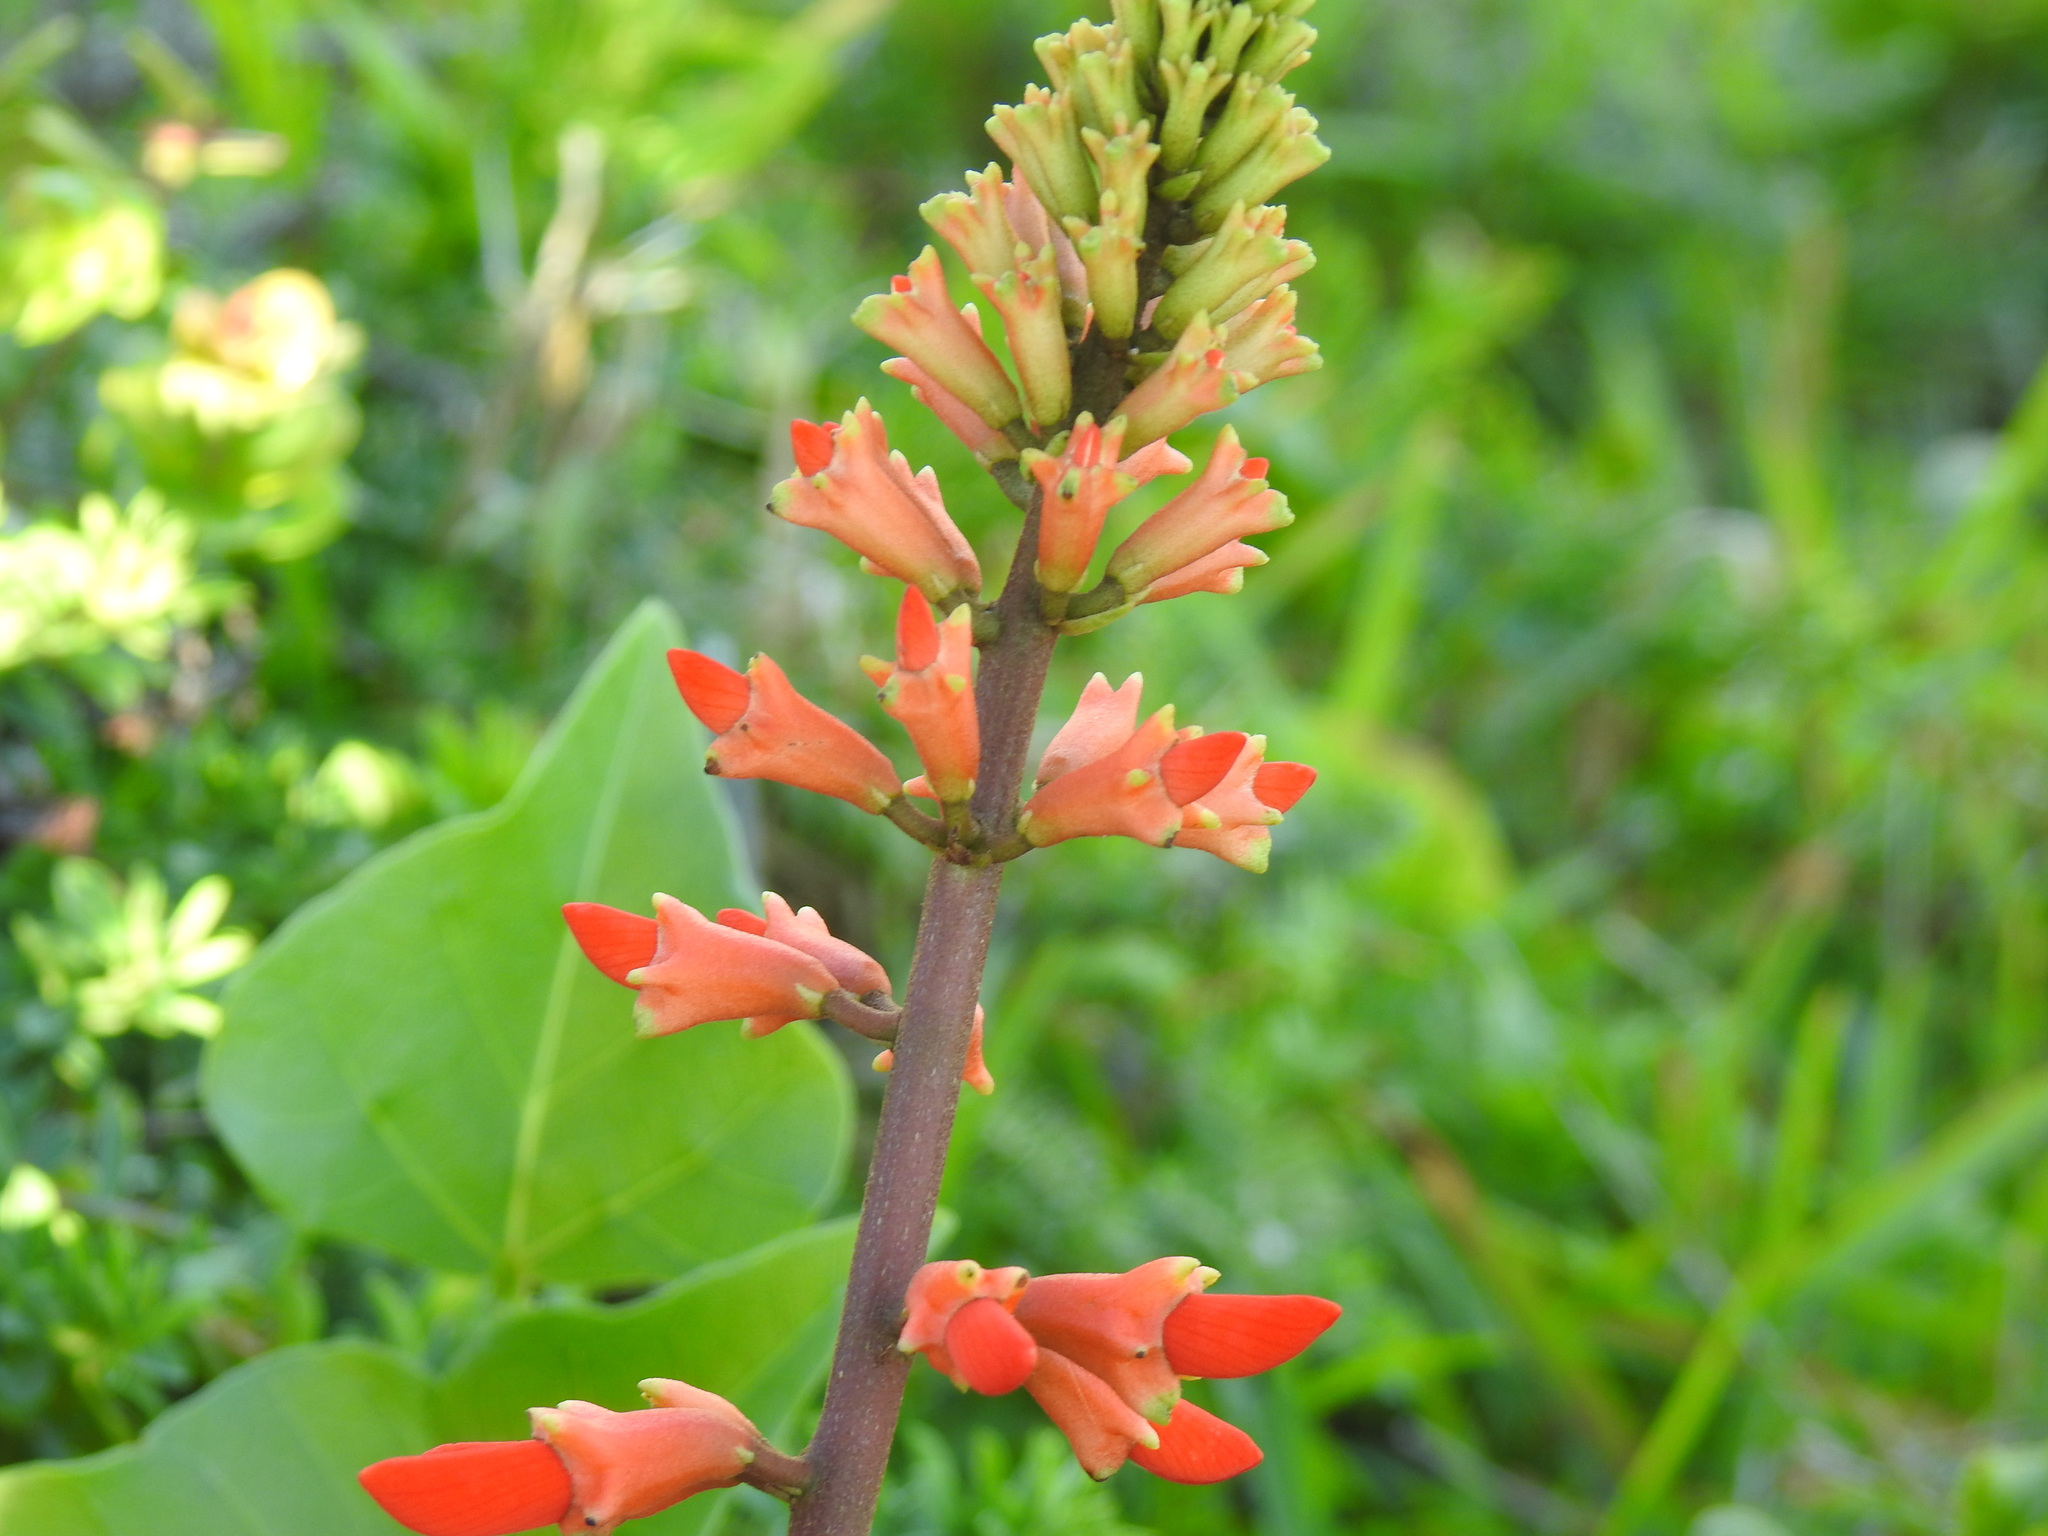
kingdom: Plantae
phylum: Tracheophyta
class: Magnoliopsida
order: Fabales
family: Fabaceae
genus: Erythrina
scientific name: Erythrina humeana
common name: Dwarf coral tree
